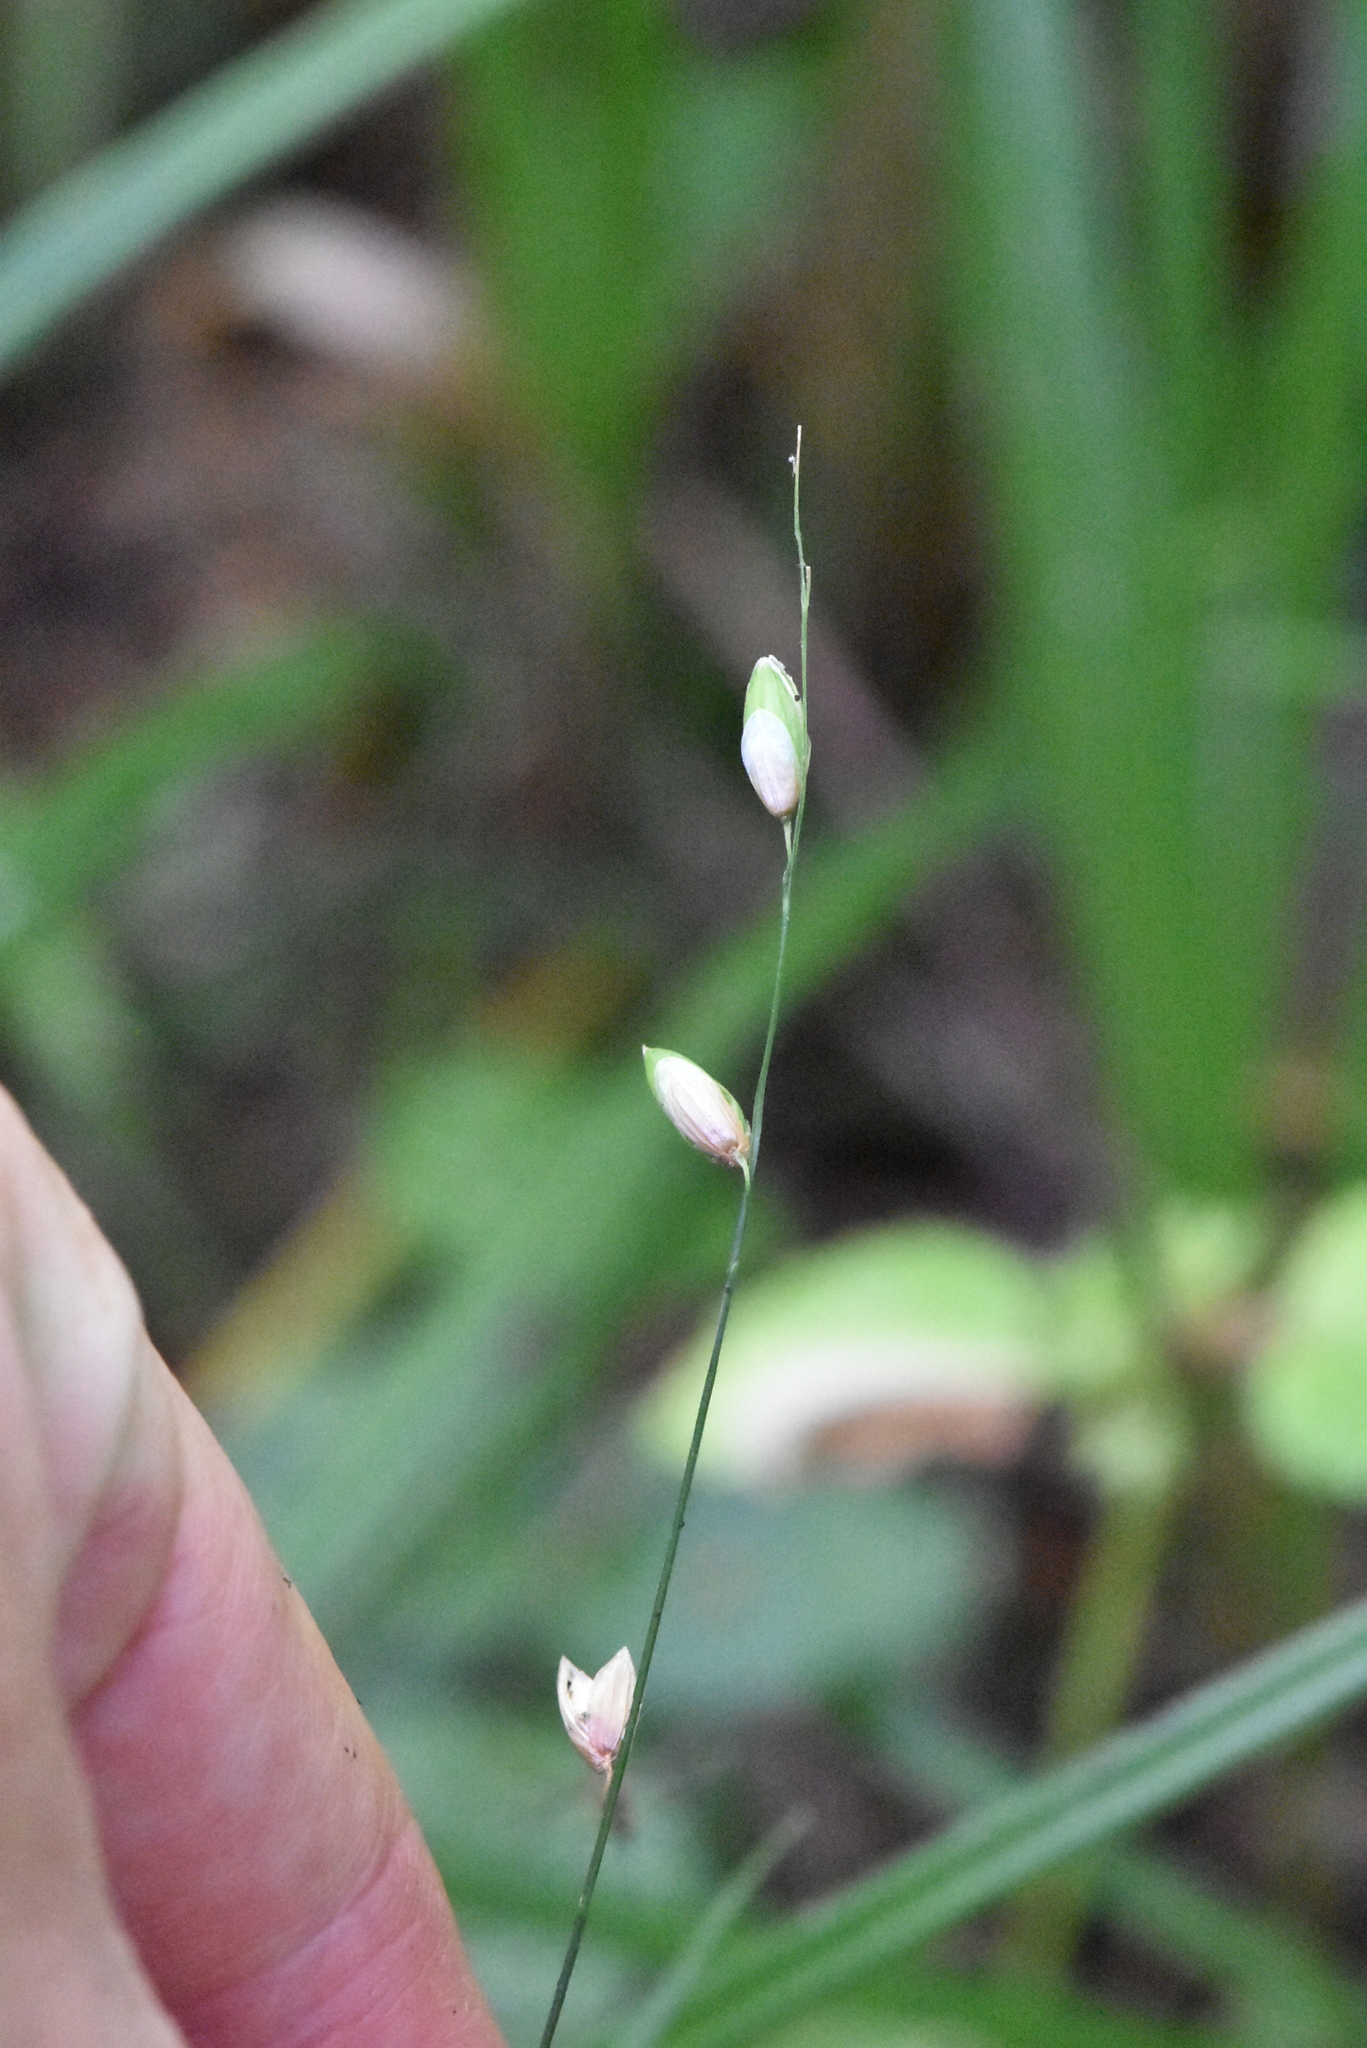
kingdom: Plantae
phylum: Tracheophyta
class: Liliopsida
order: Poales
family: Poaceae
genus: Melica
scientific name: Melica nutans
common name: Mountain melick
